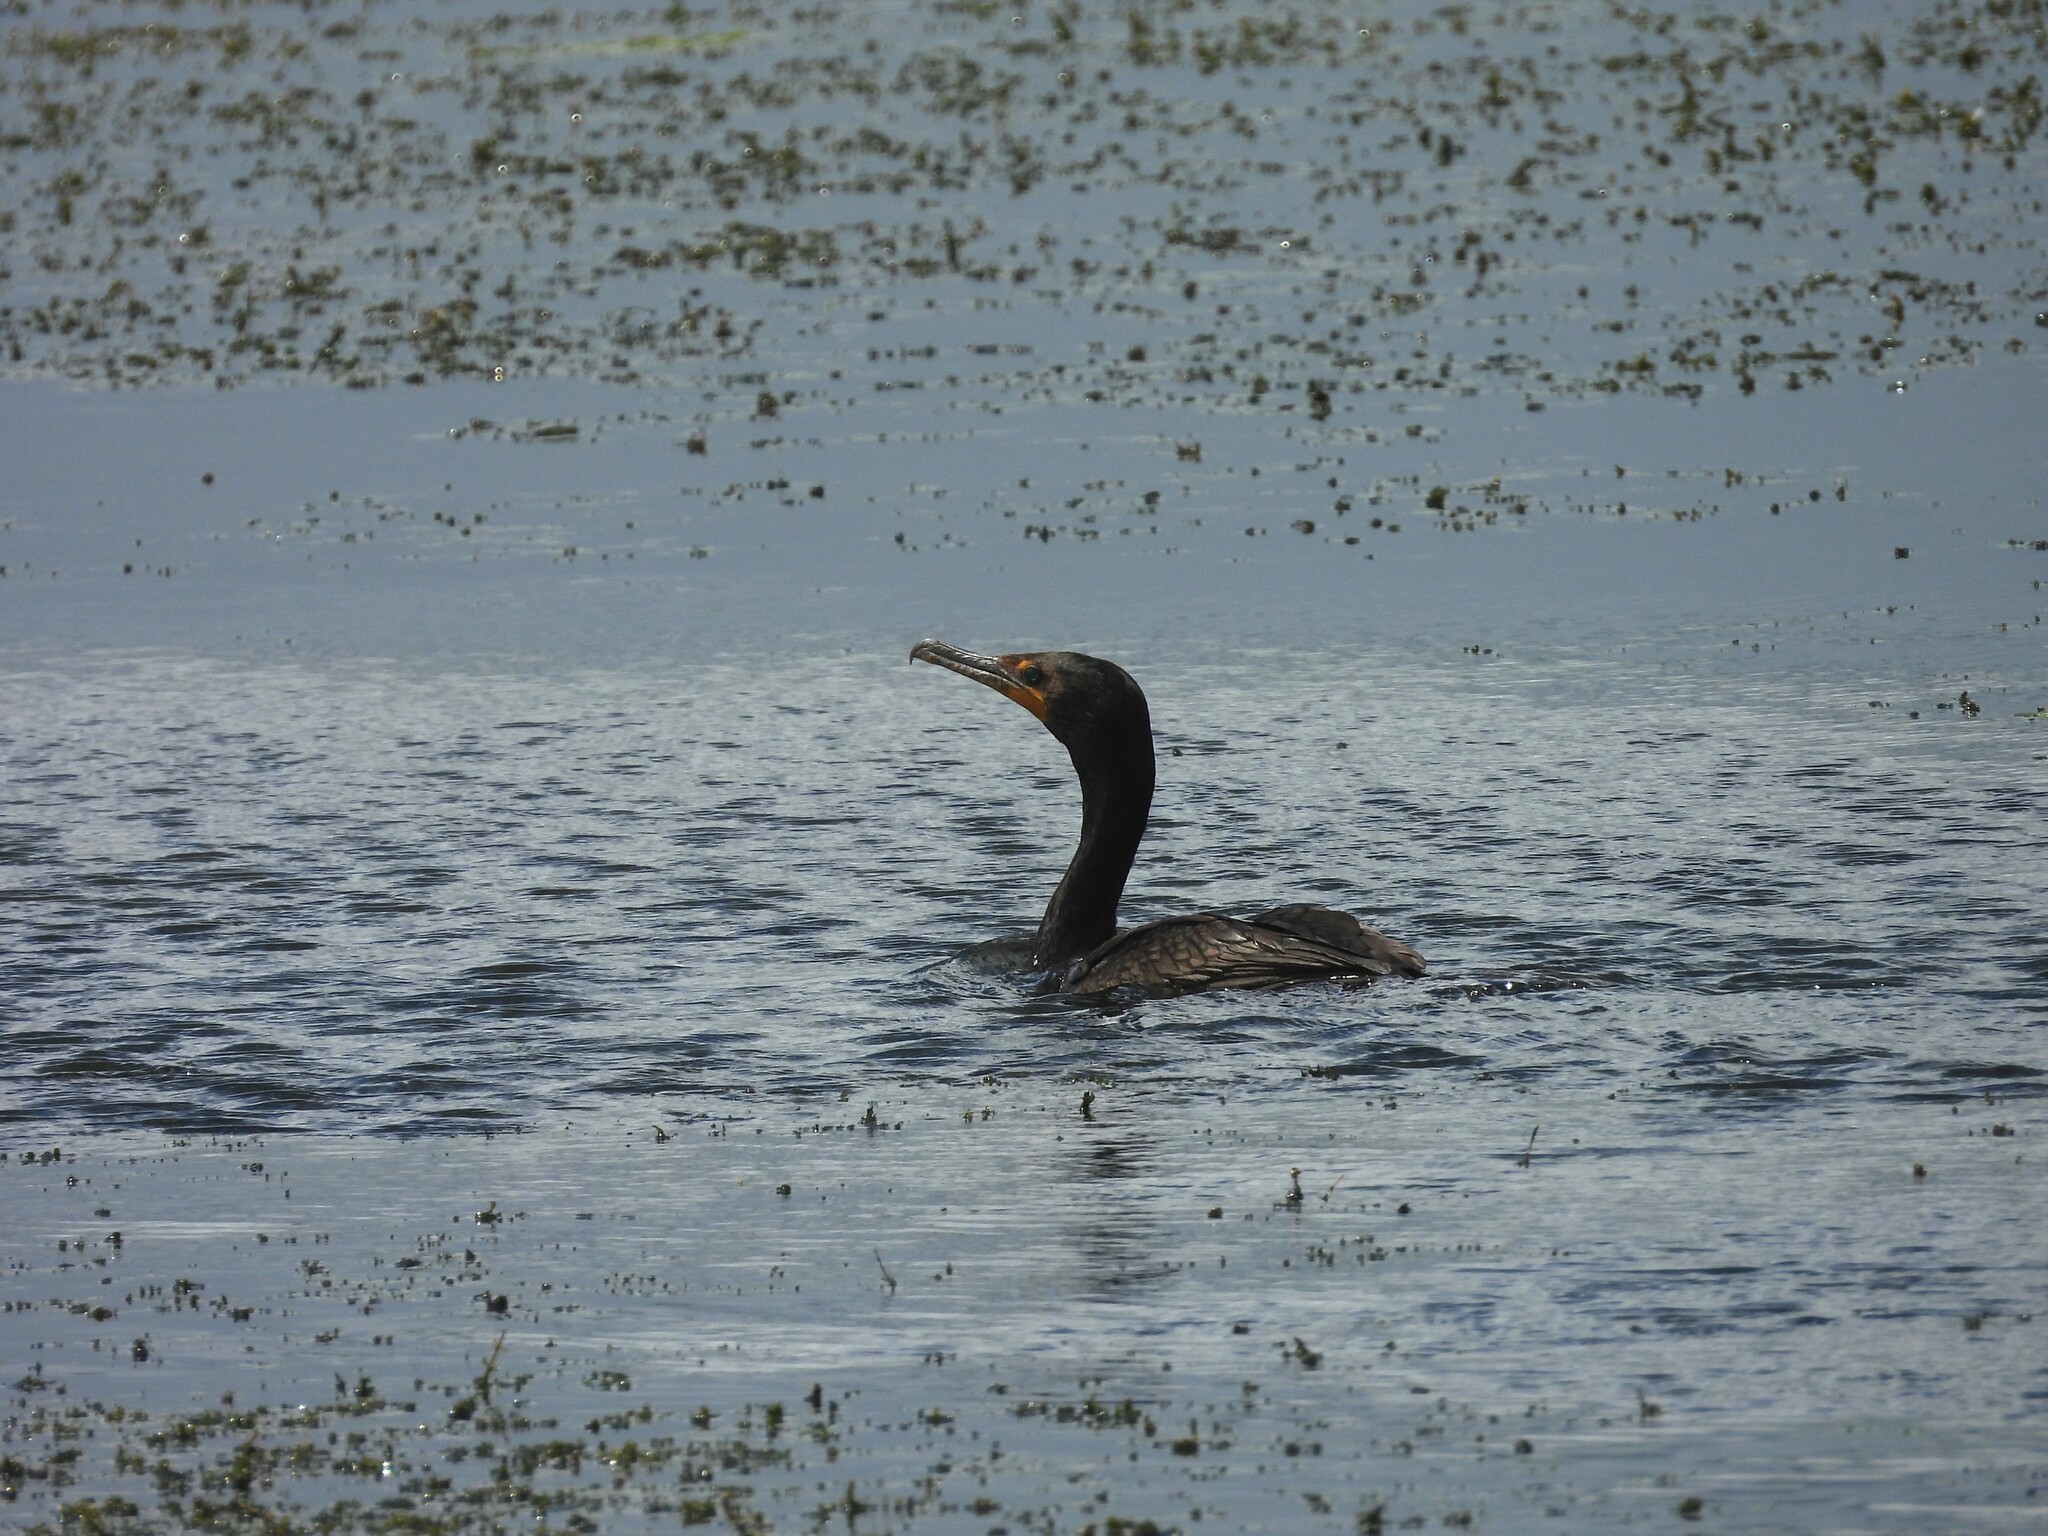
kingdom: Animalia
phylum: Chordata
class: Aves
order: Suliformes
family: Phalacrocoracidae
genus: Phalacrocorax
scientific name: Phalacrocorax auritus
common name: Double-crested cormorant
